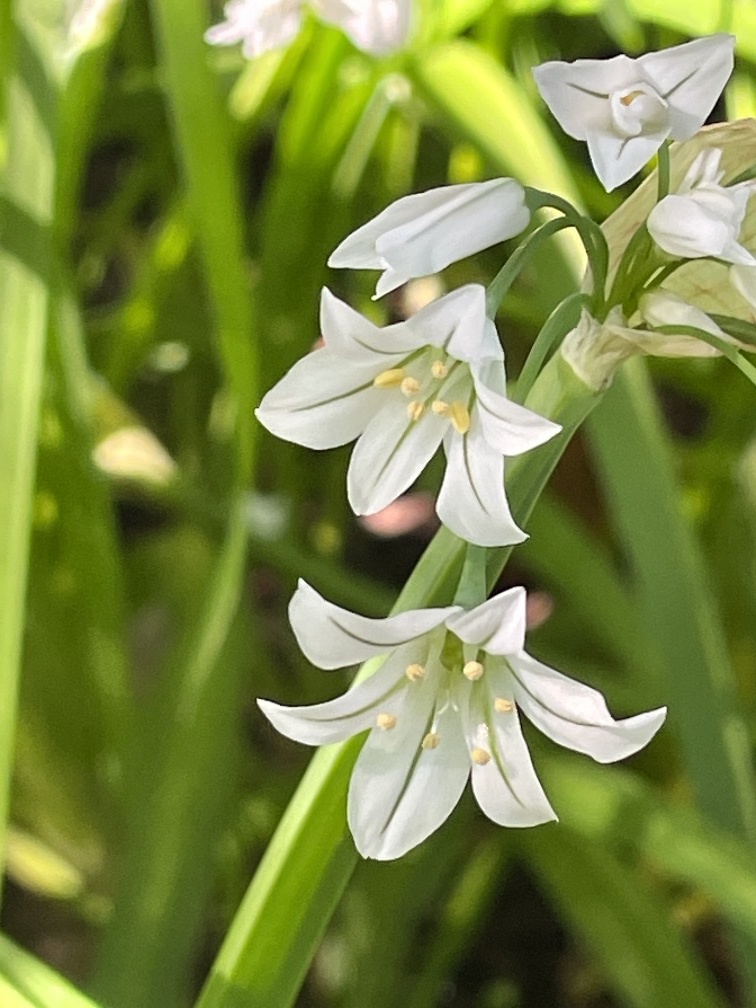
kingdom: Plantae
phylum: Tracheophyta
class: Liliopsida
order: Asparagales
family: Amaryllidaceae
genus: Allium
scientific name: Allium triquetrum
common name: Three-cornered garlic
